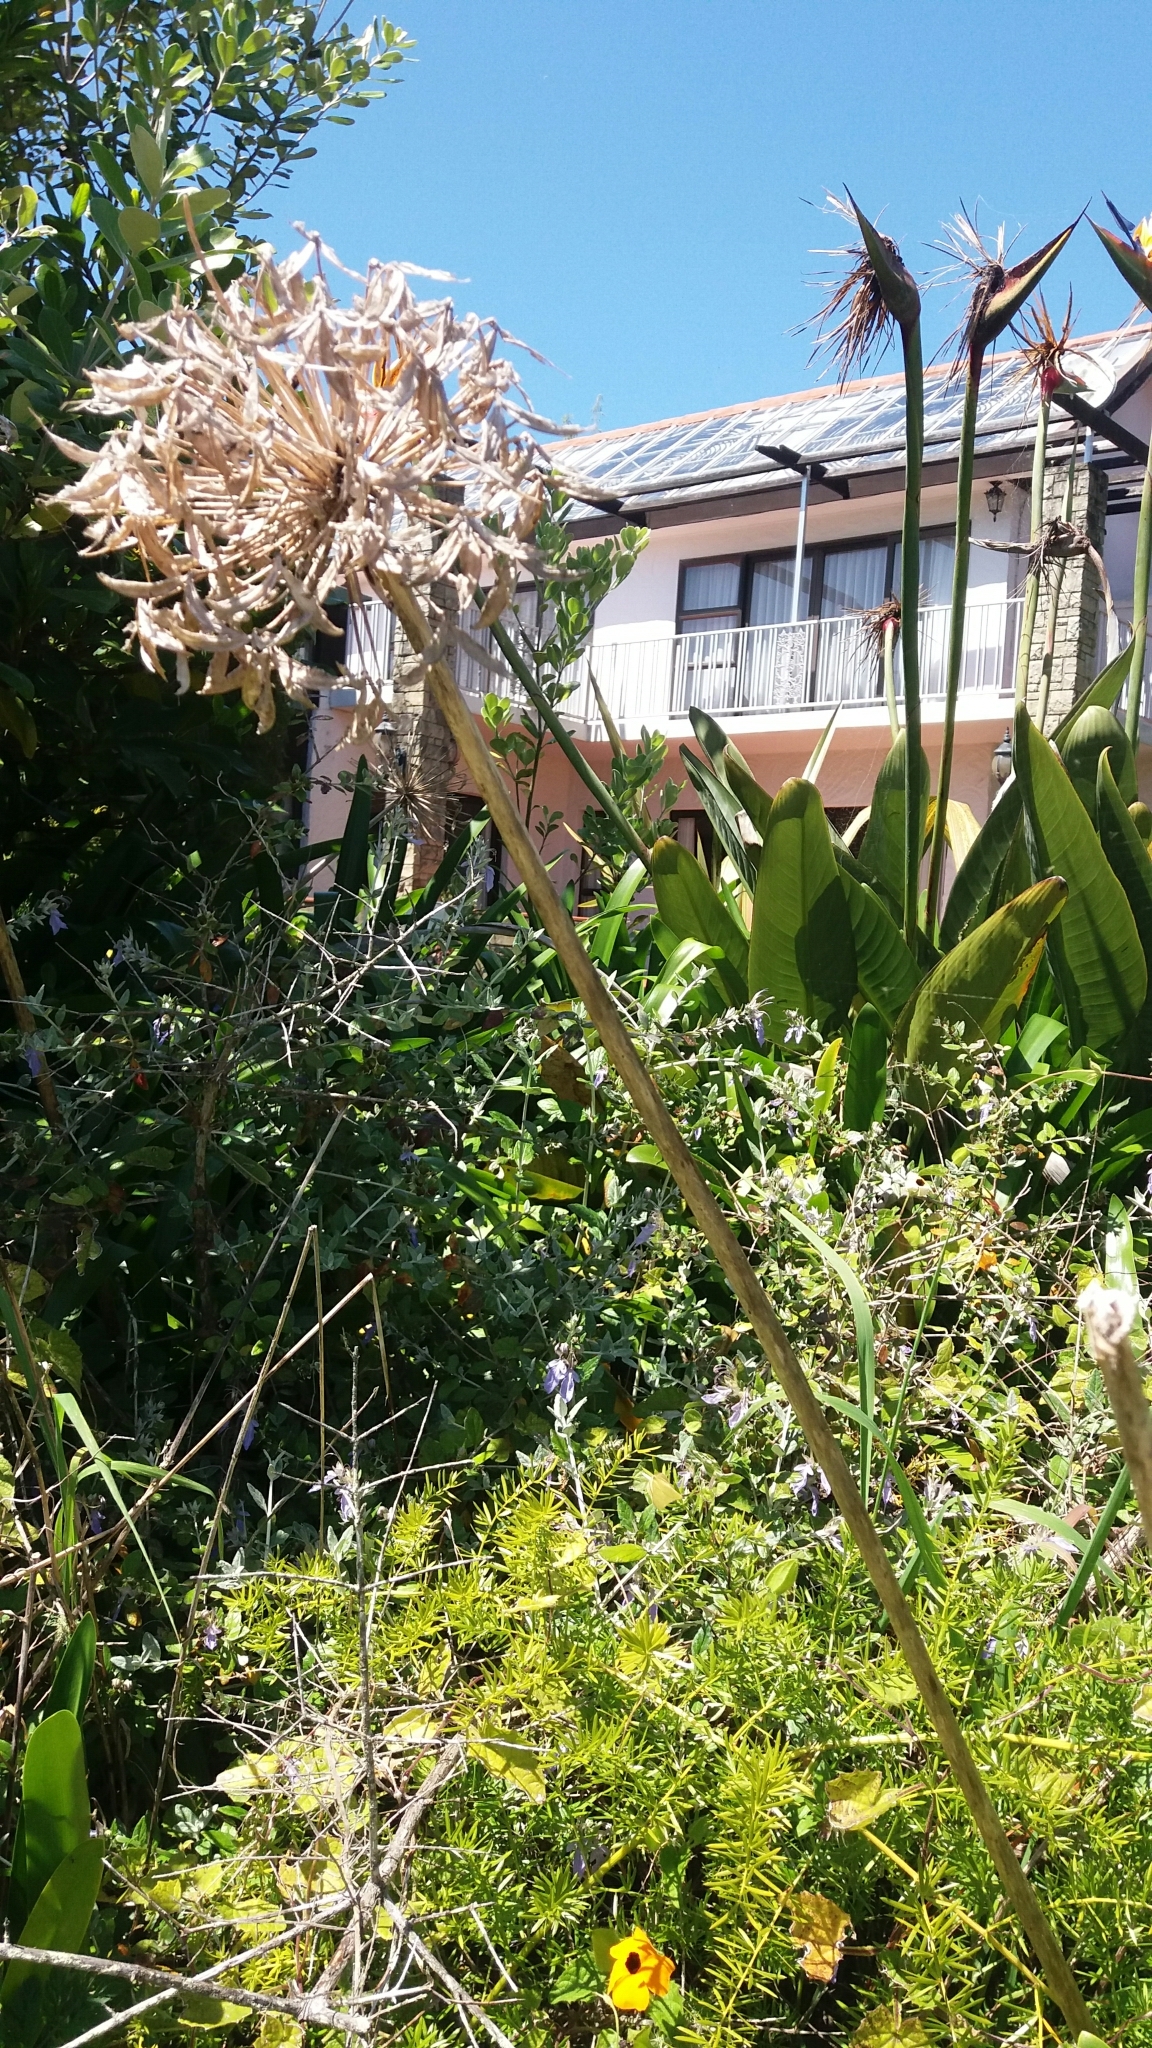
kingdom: Plantae
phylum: Tracheophyta
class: Liliopsida
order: Asparagales
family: Amaryllidaceae
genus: Agapanthus
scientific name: Agapanthus praecox
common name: African-lily
